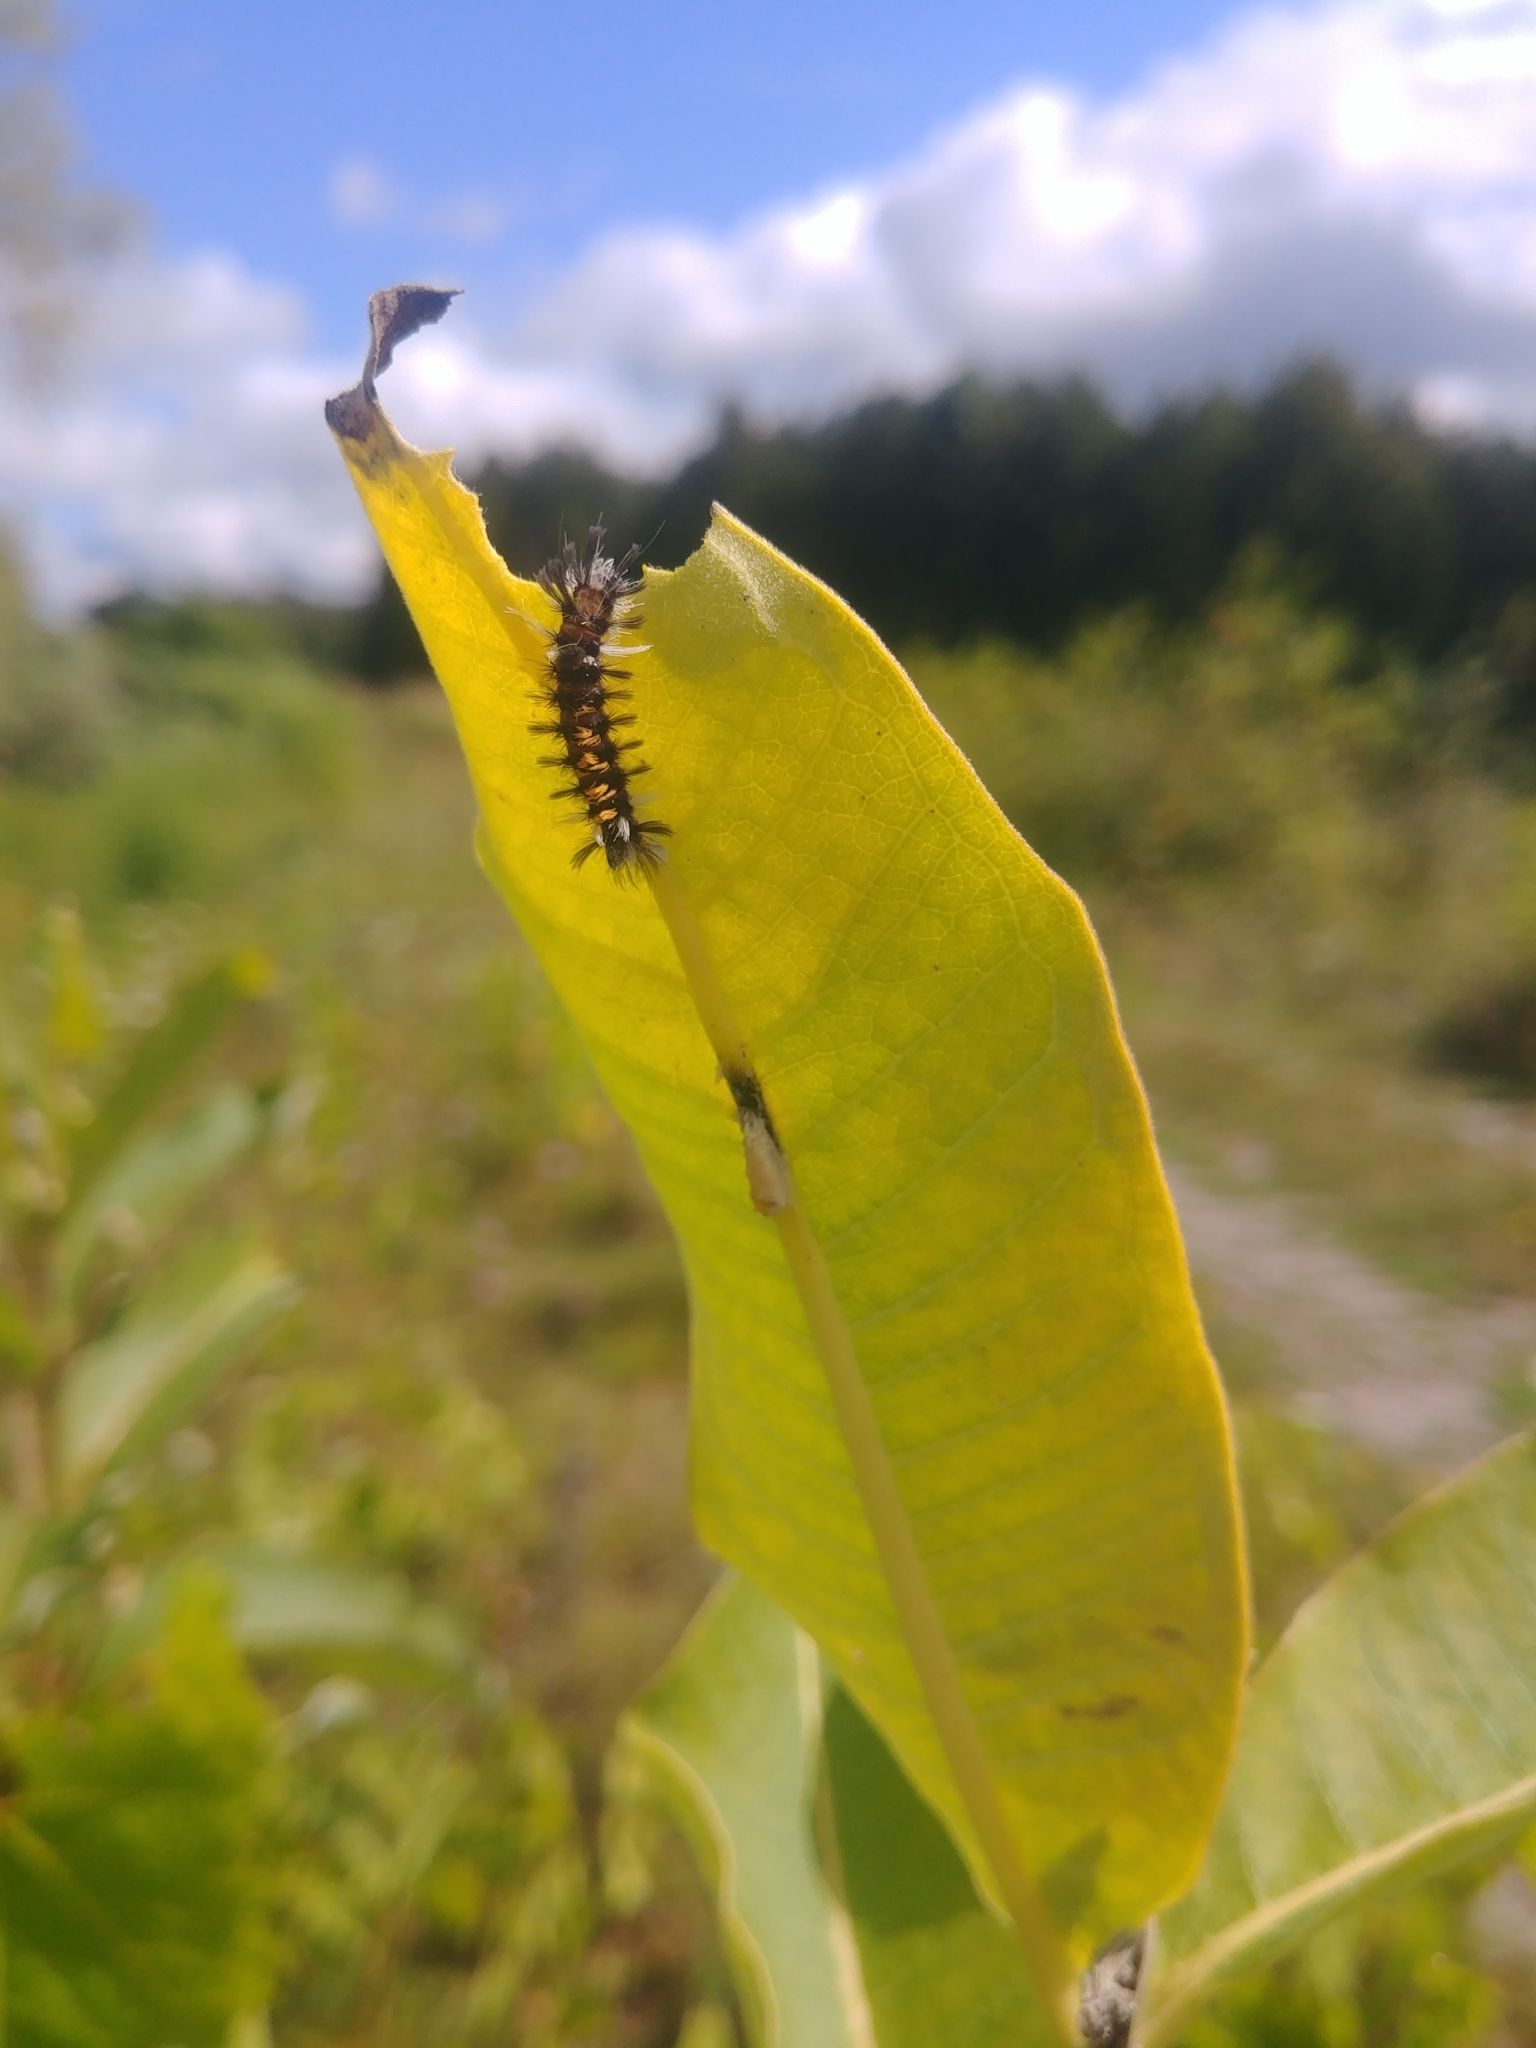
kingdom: Animalia
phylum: Arthropoda
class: Insecta
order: Lepidoptera
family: Erebidae
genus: Euchaetes
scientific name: Euchaetes egle
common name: Milkweed tussock moth
